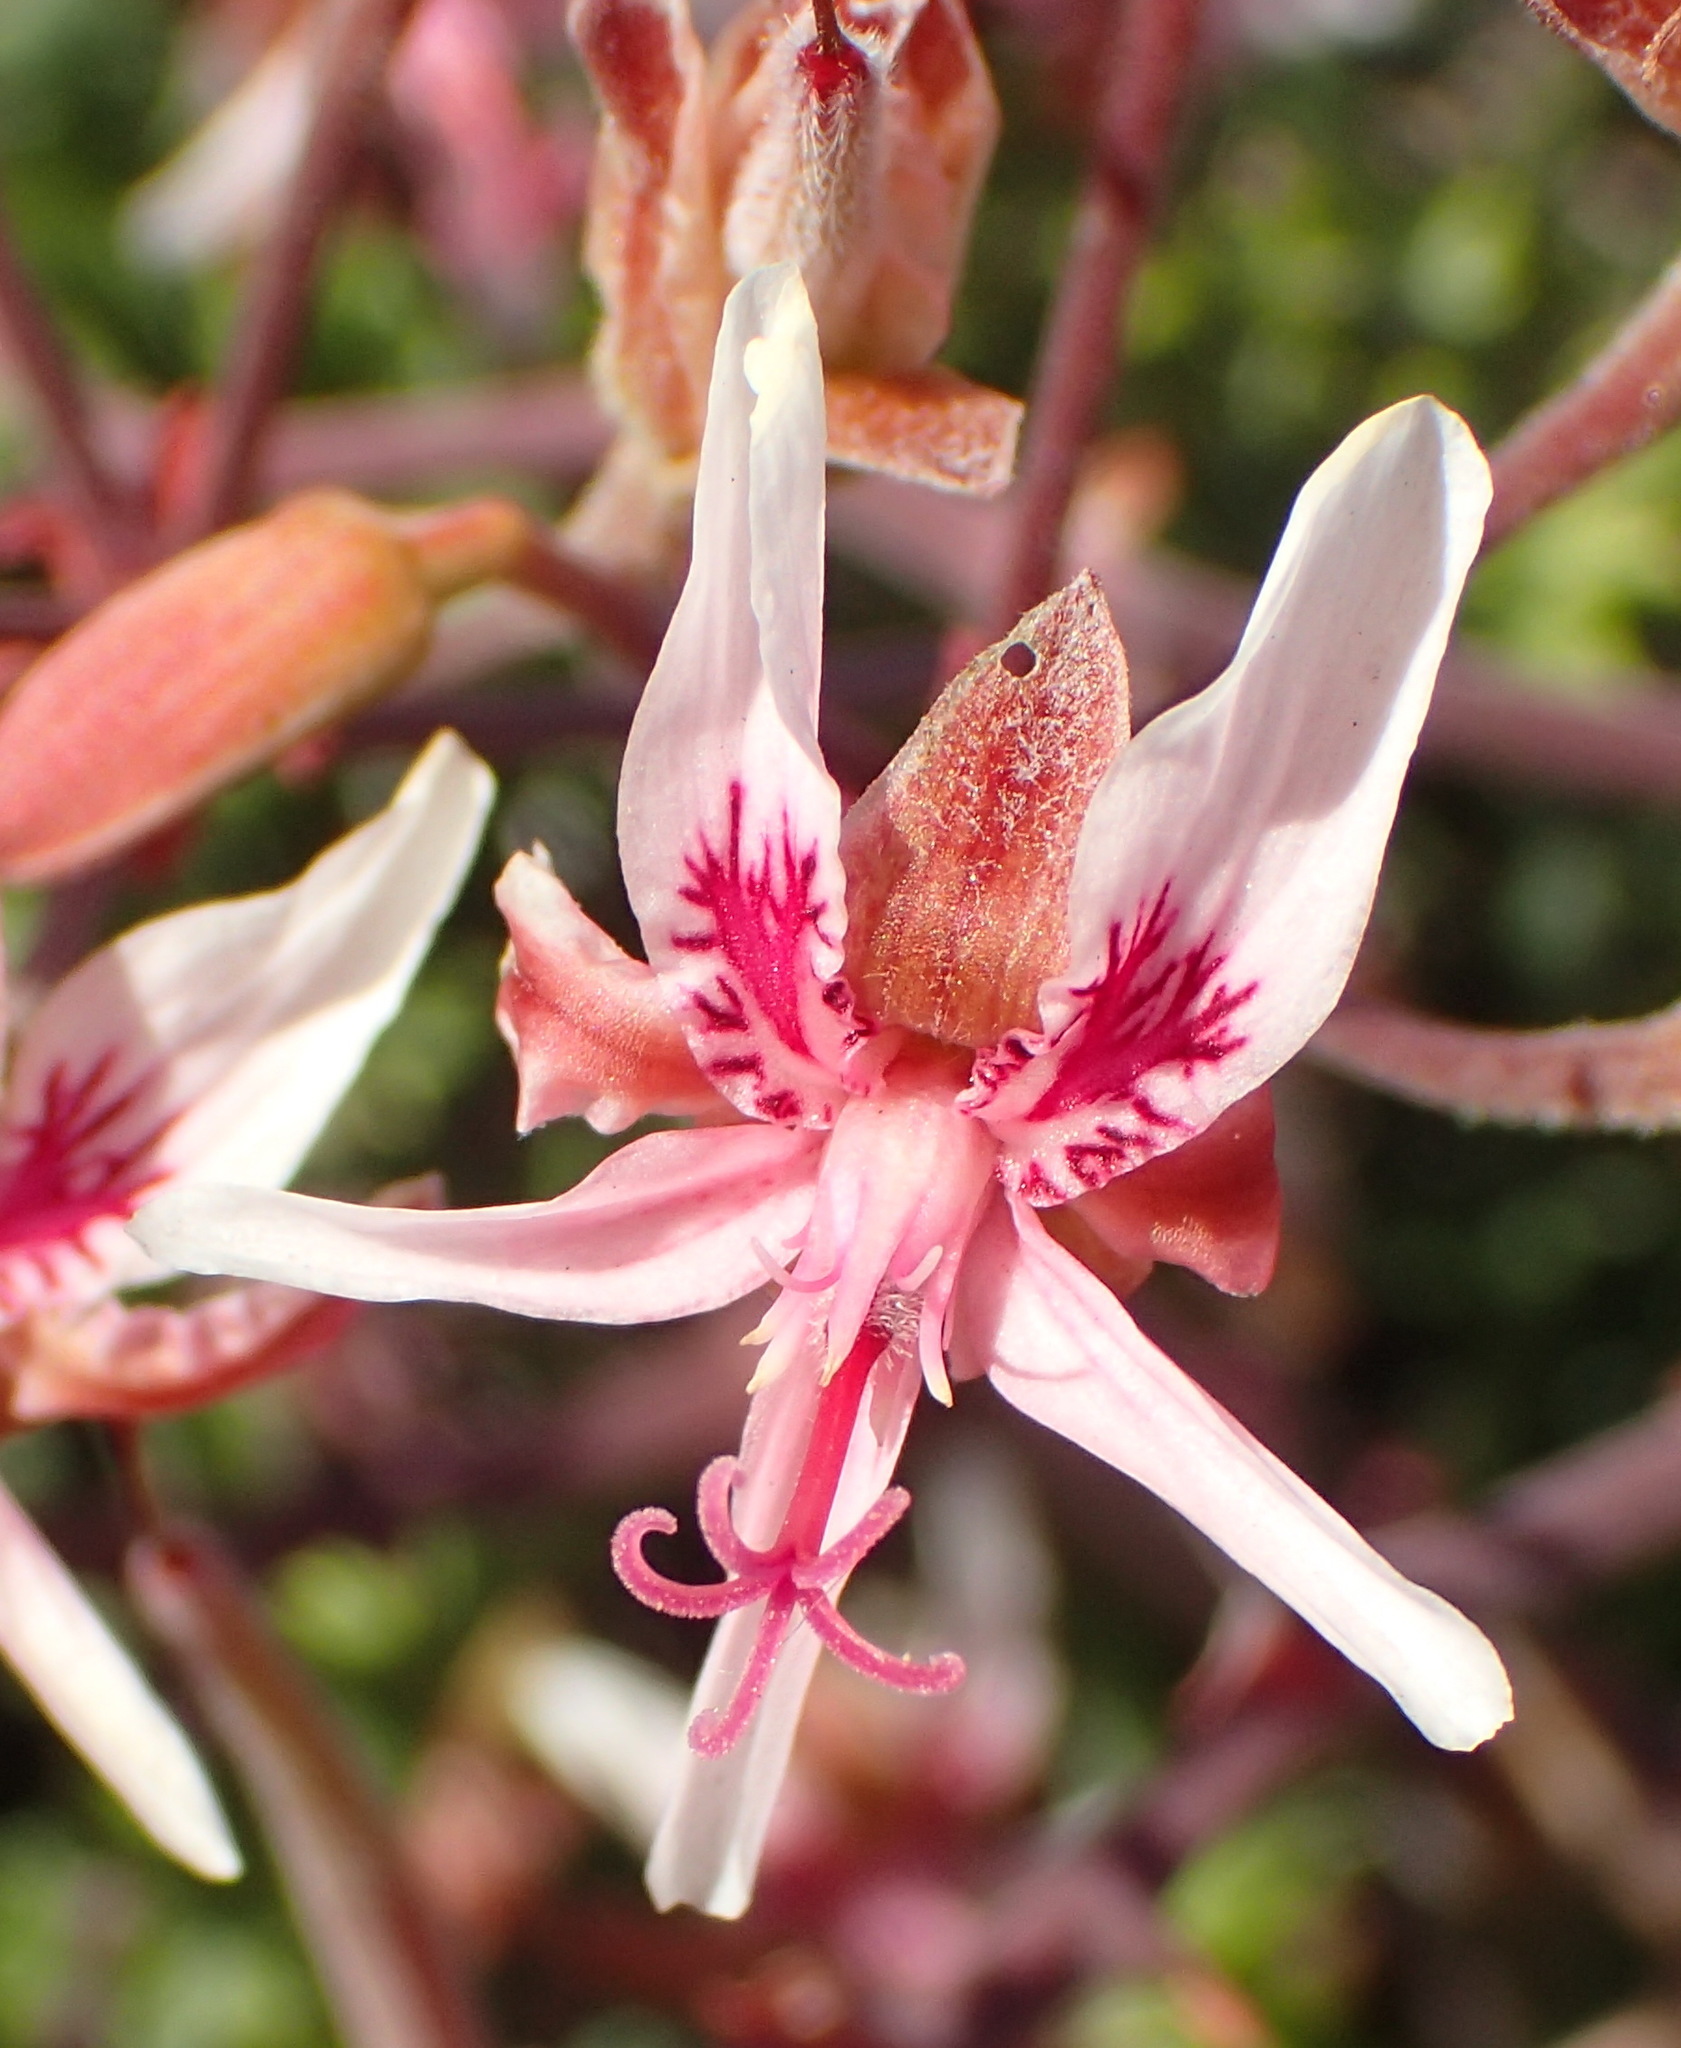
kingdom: Plantae
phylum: Tracheophyta
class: Magnoliopsida
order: Geraniales
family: Geraniaceae
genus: Pelargonium
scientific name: Pelargonium crithmifolium
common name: Samphire-leaf pelargonium
